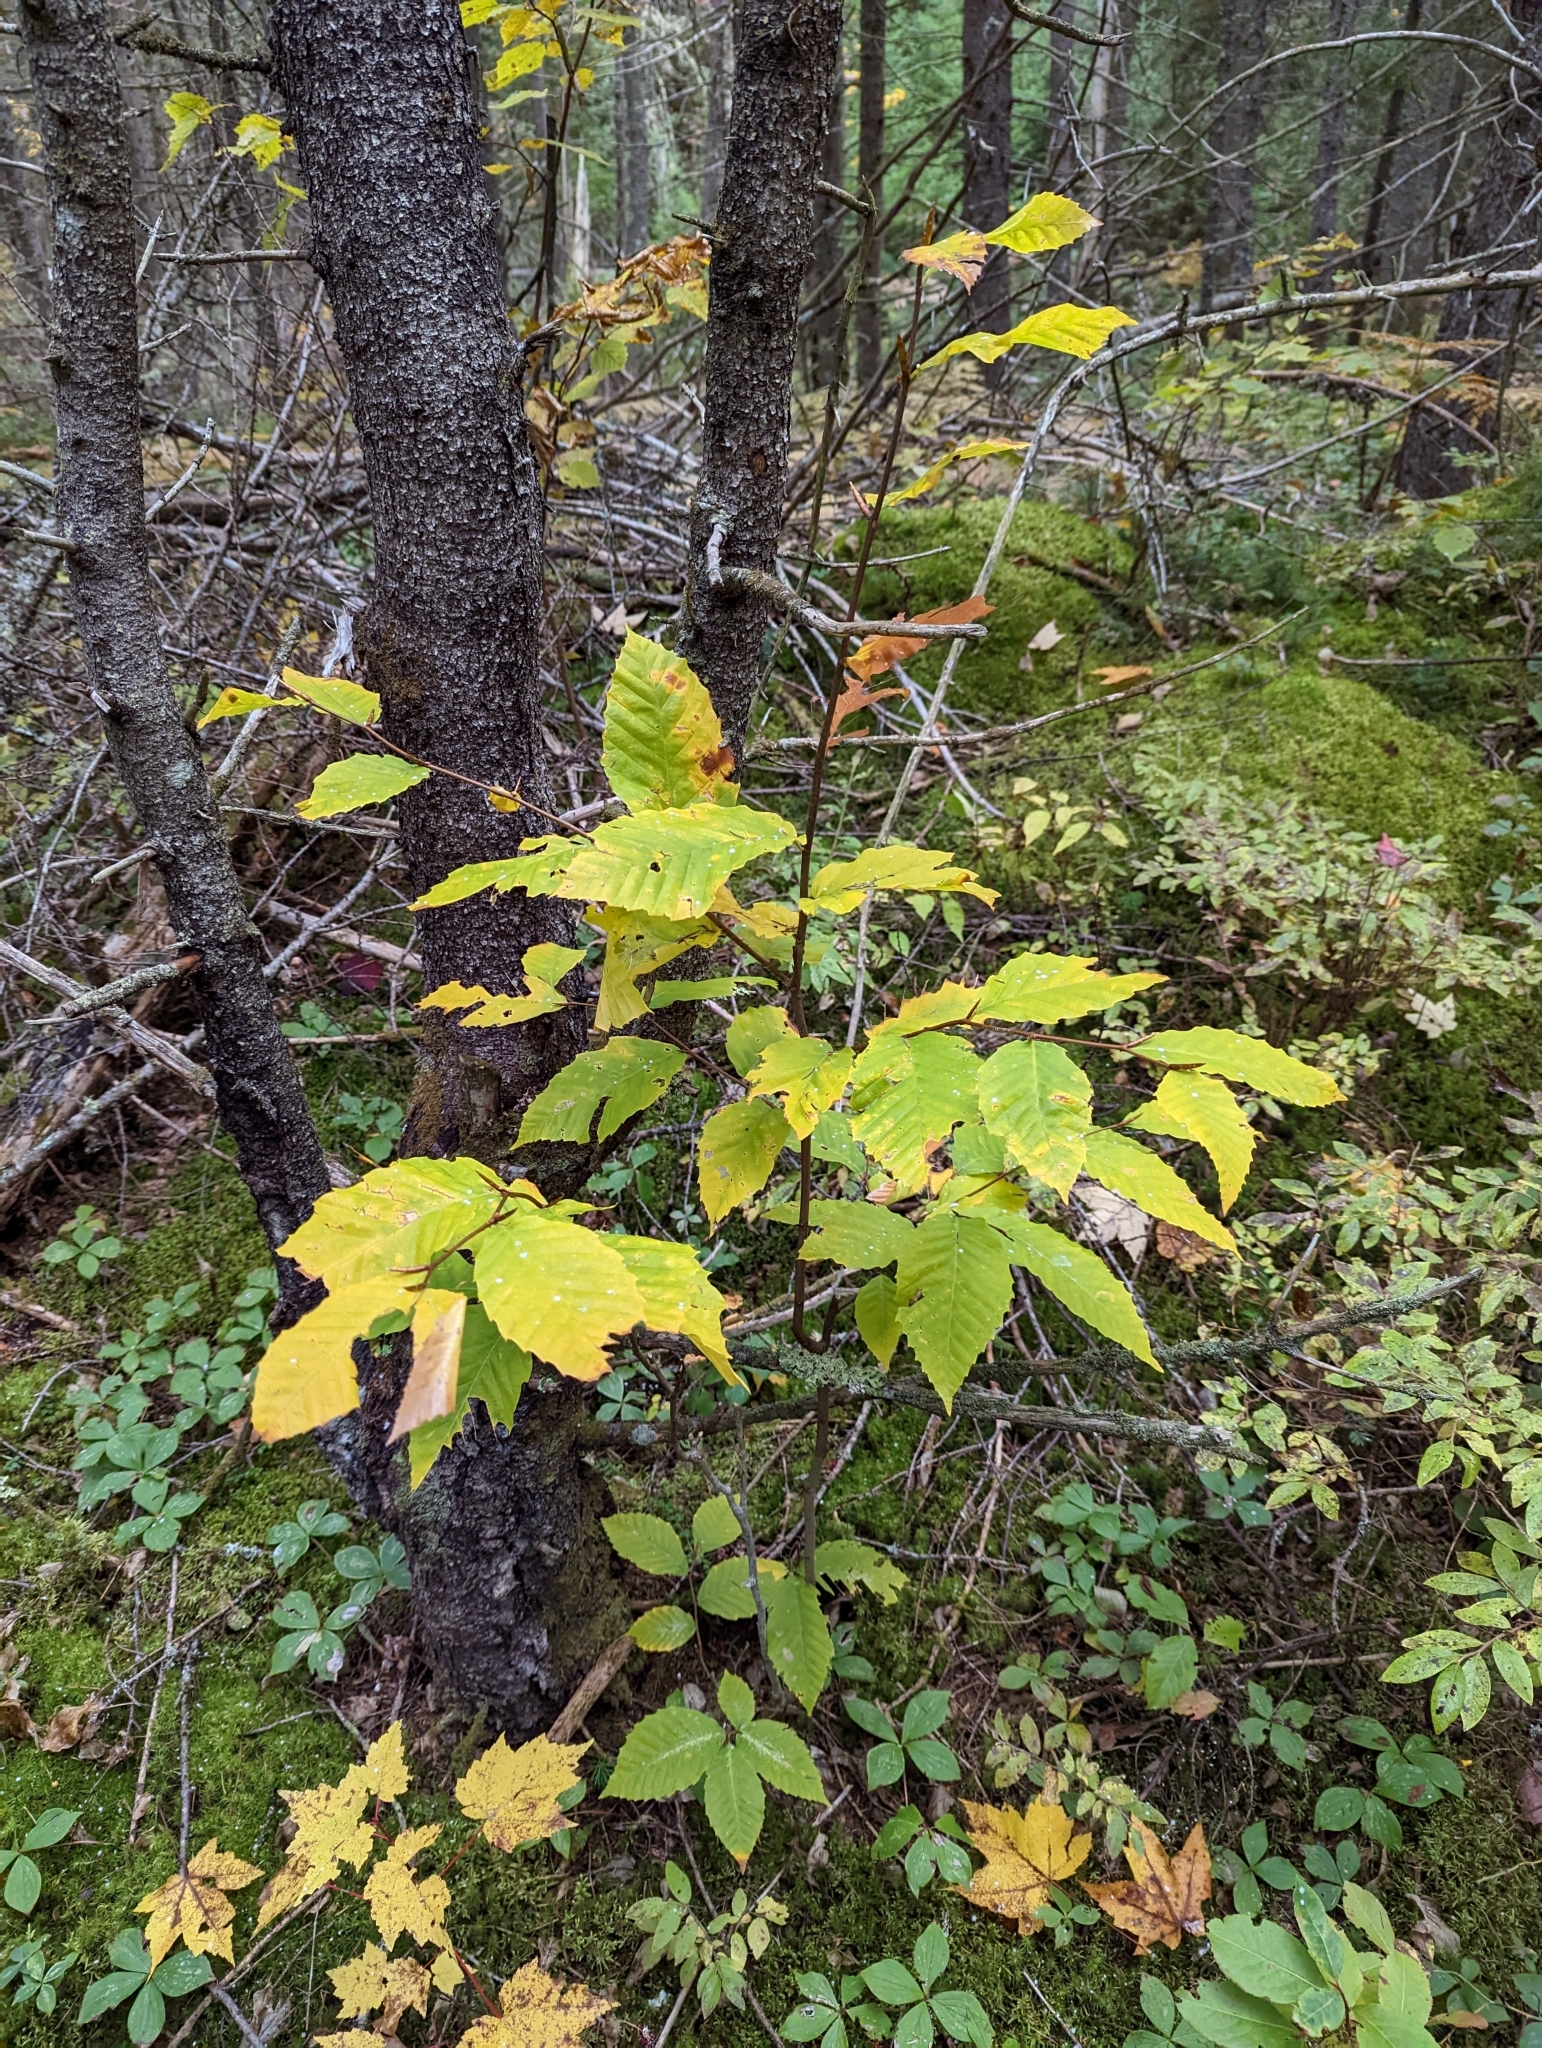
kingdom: Plantae
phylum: Tracheophyta
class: Magnoliopsida
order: Fagales
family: Fagaceae
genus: Fagus
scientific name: Fagus grandifolia
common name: American beech
